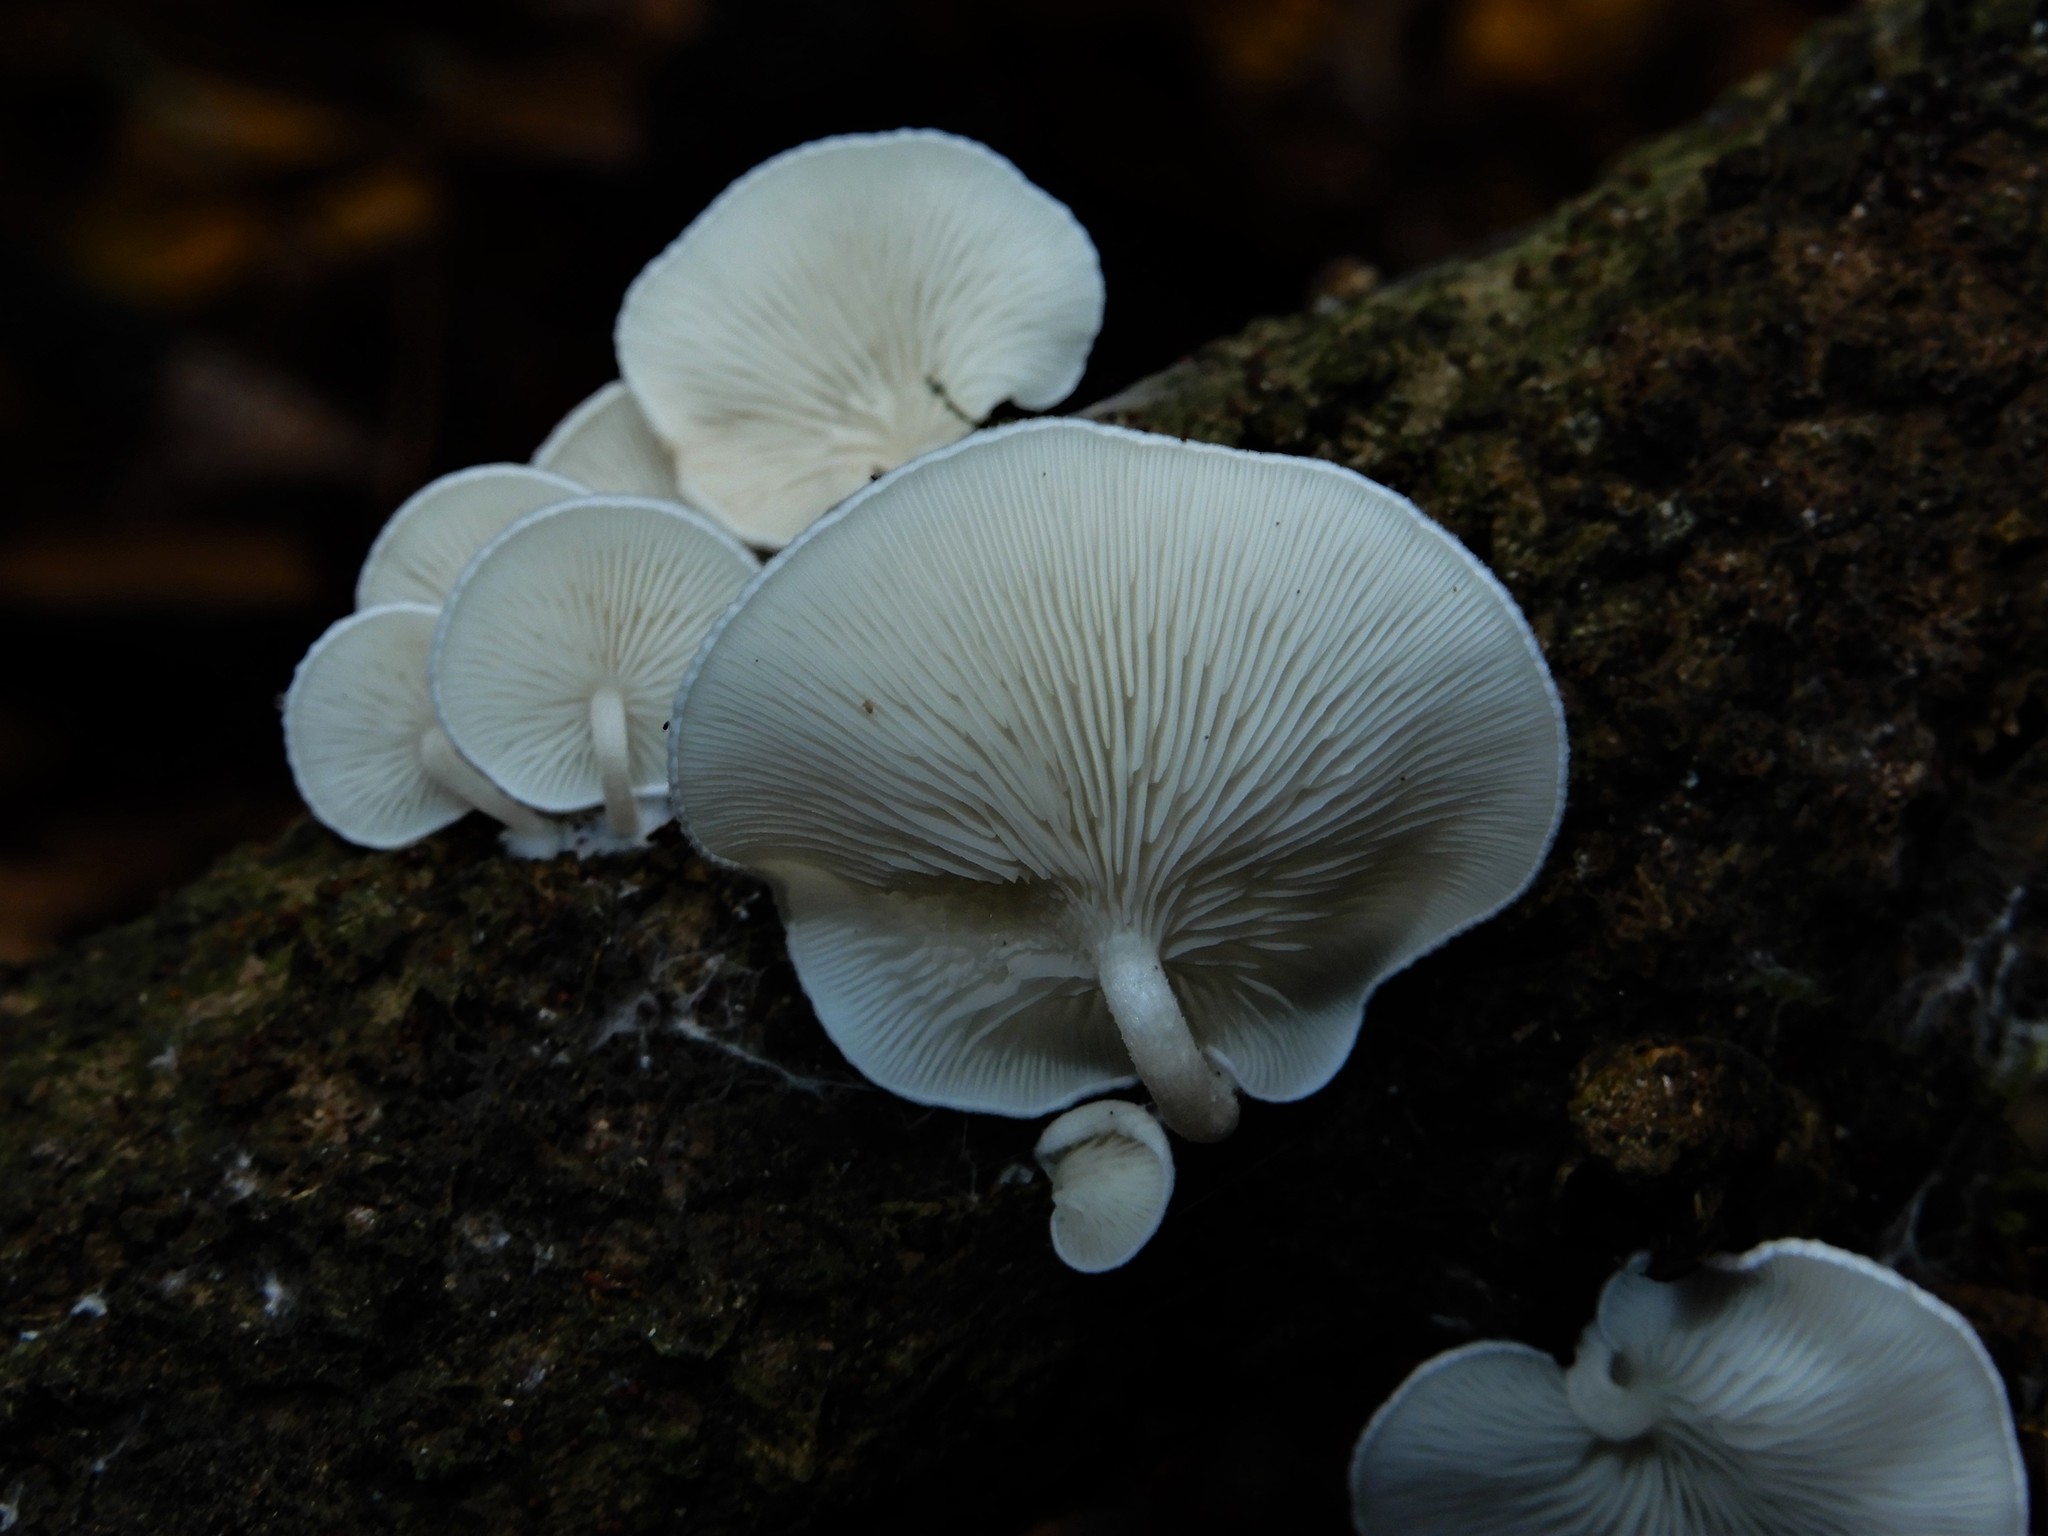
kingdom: Fungi
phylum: Basidiomycota
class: Agaricomycetes
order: Agaricales
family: Lyophyllaceae
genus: Ossicaulis
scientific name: Ossicaulis
